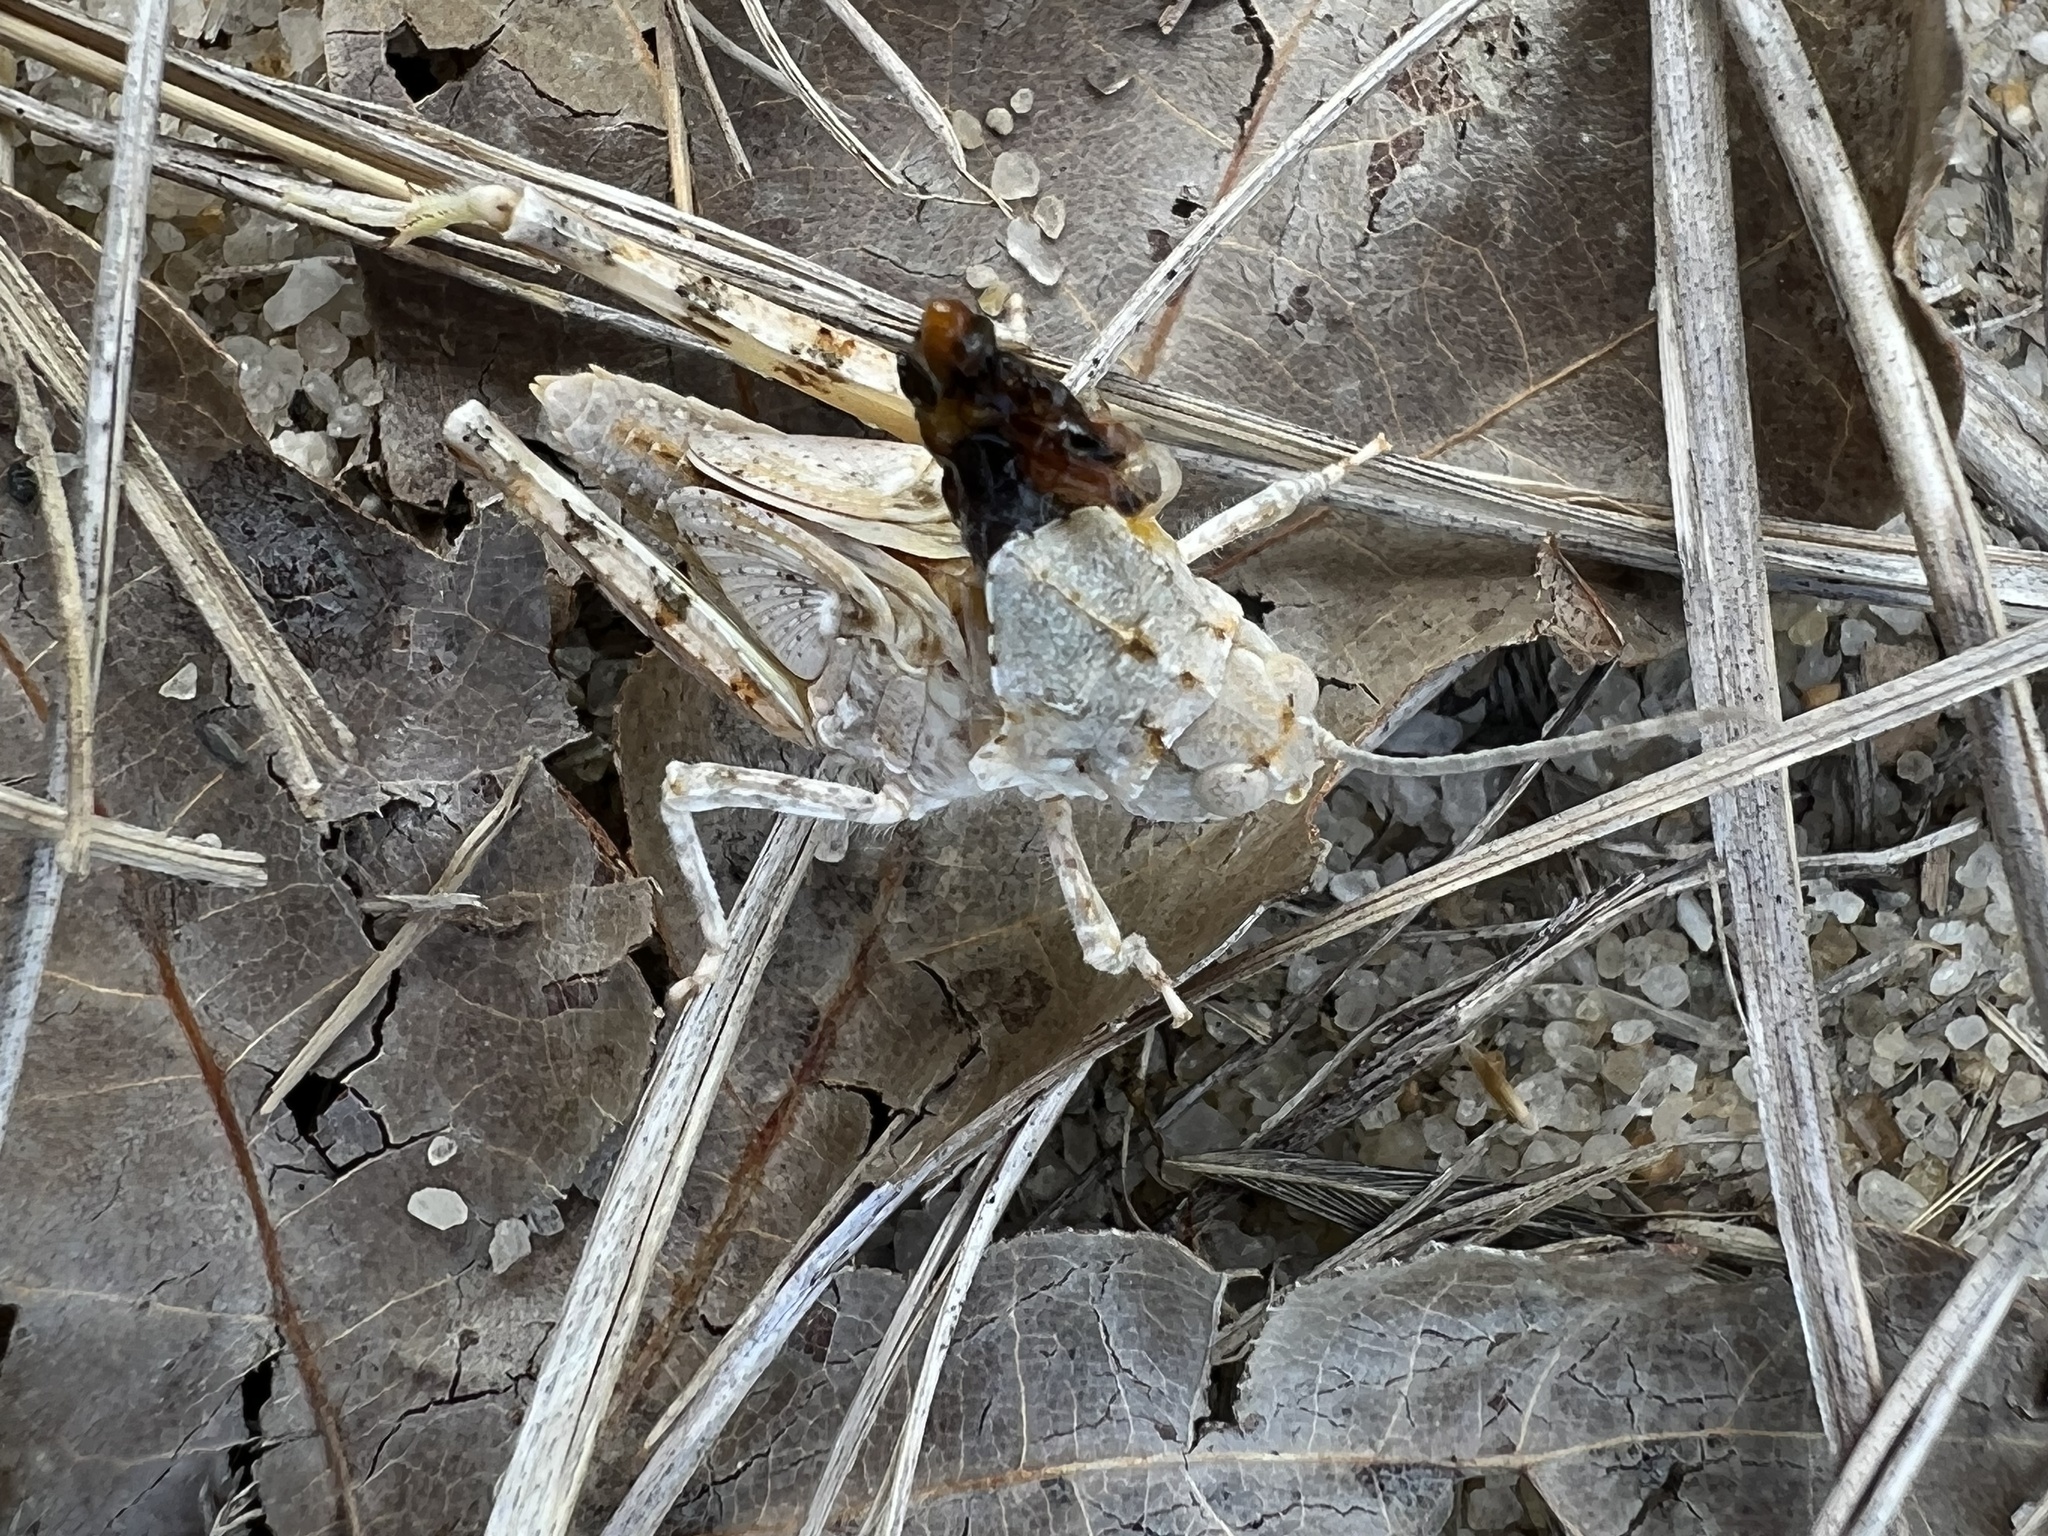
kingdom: Animalia
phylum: Arthropoda
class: Insecta
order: Orthoptera
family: Acrididae
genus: Trimerotropis
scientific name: Trimerotropis maritima
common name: Seaside locust
